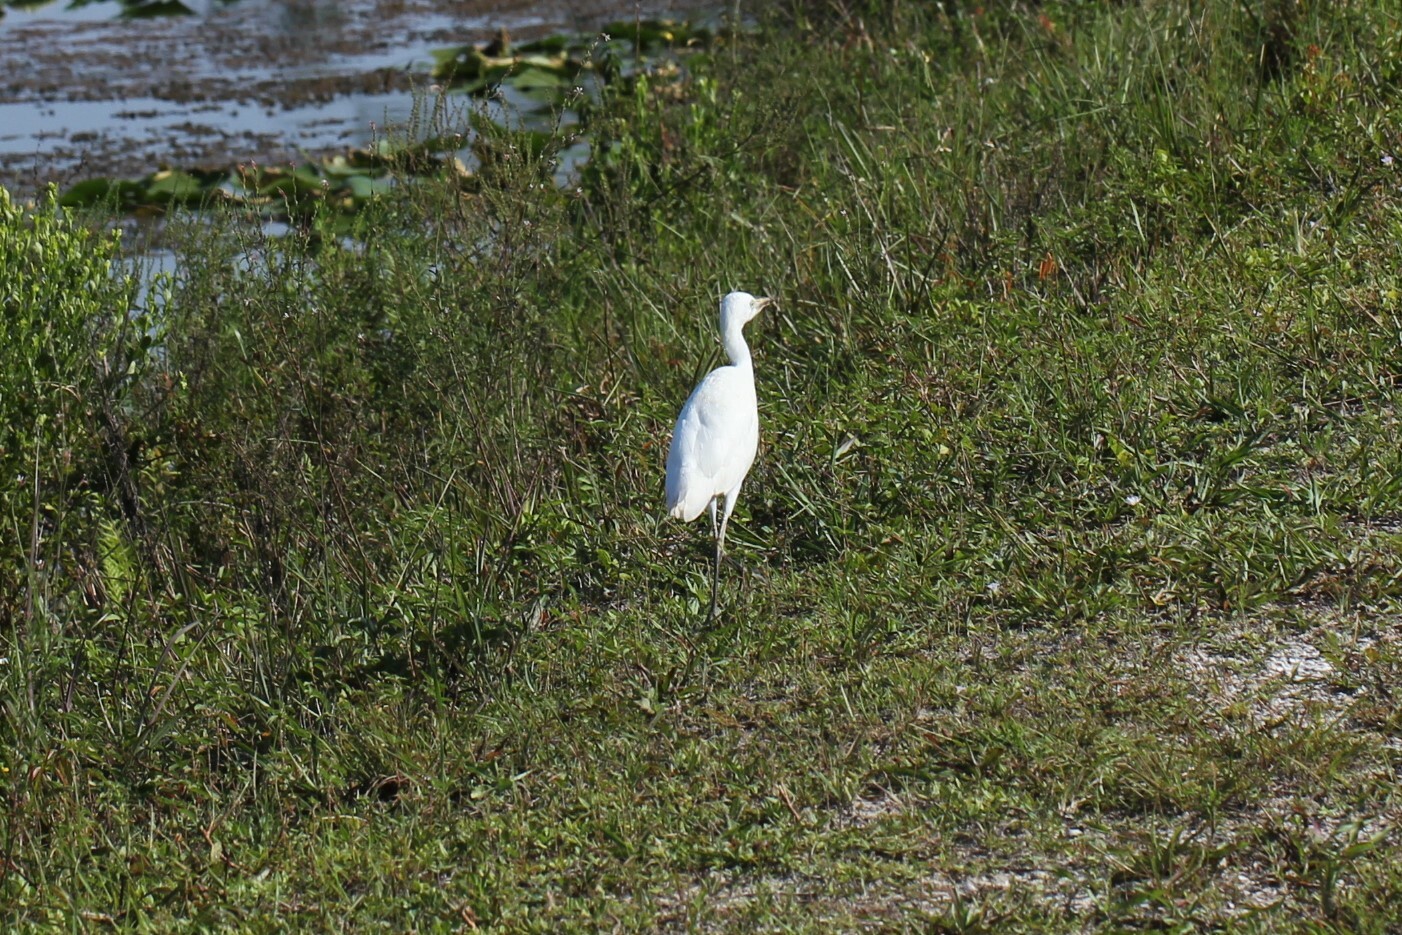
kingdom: Animalia
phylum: Chordata
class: Aves
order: Pelecaniformes
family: Ardeidae
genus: Bubulcus
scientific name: Bubulcus ibis
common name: Cattle egret
